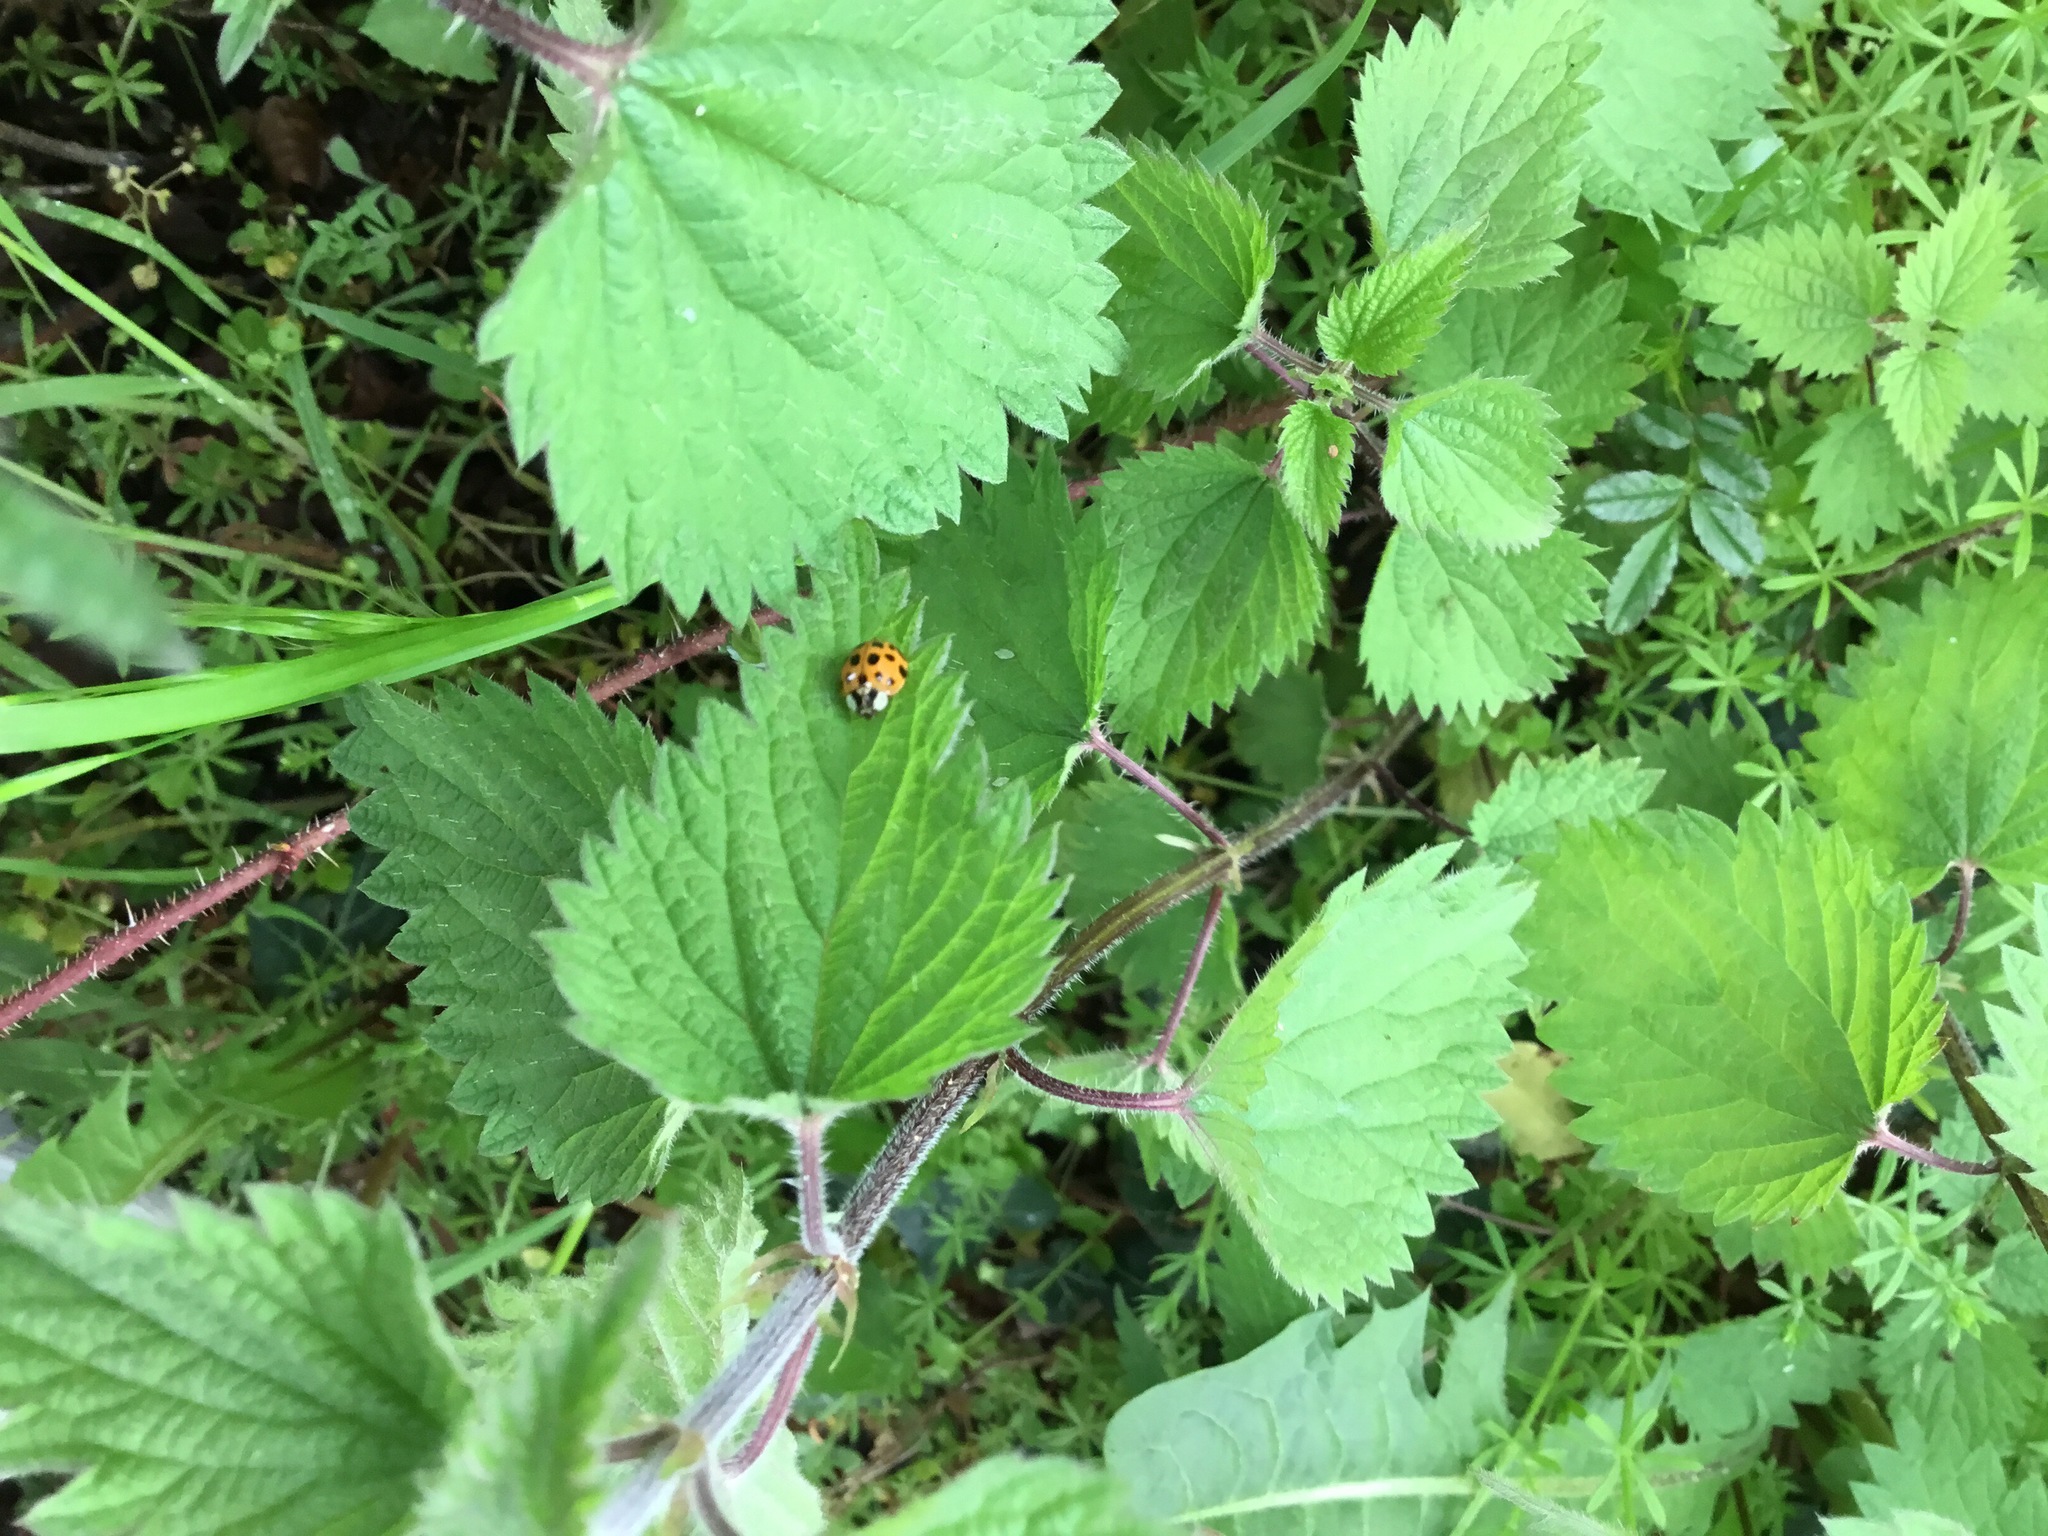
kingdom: Animalia
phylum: Arthropoda
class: Insecta
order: Coleoptera
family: Coccinellidae
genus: Harmonia
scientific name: Harmonia axyridis
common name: Harlequin ladybird
